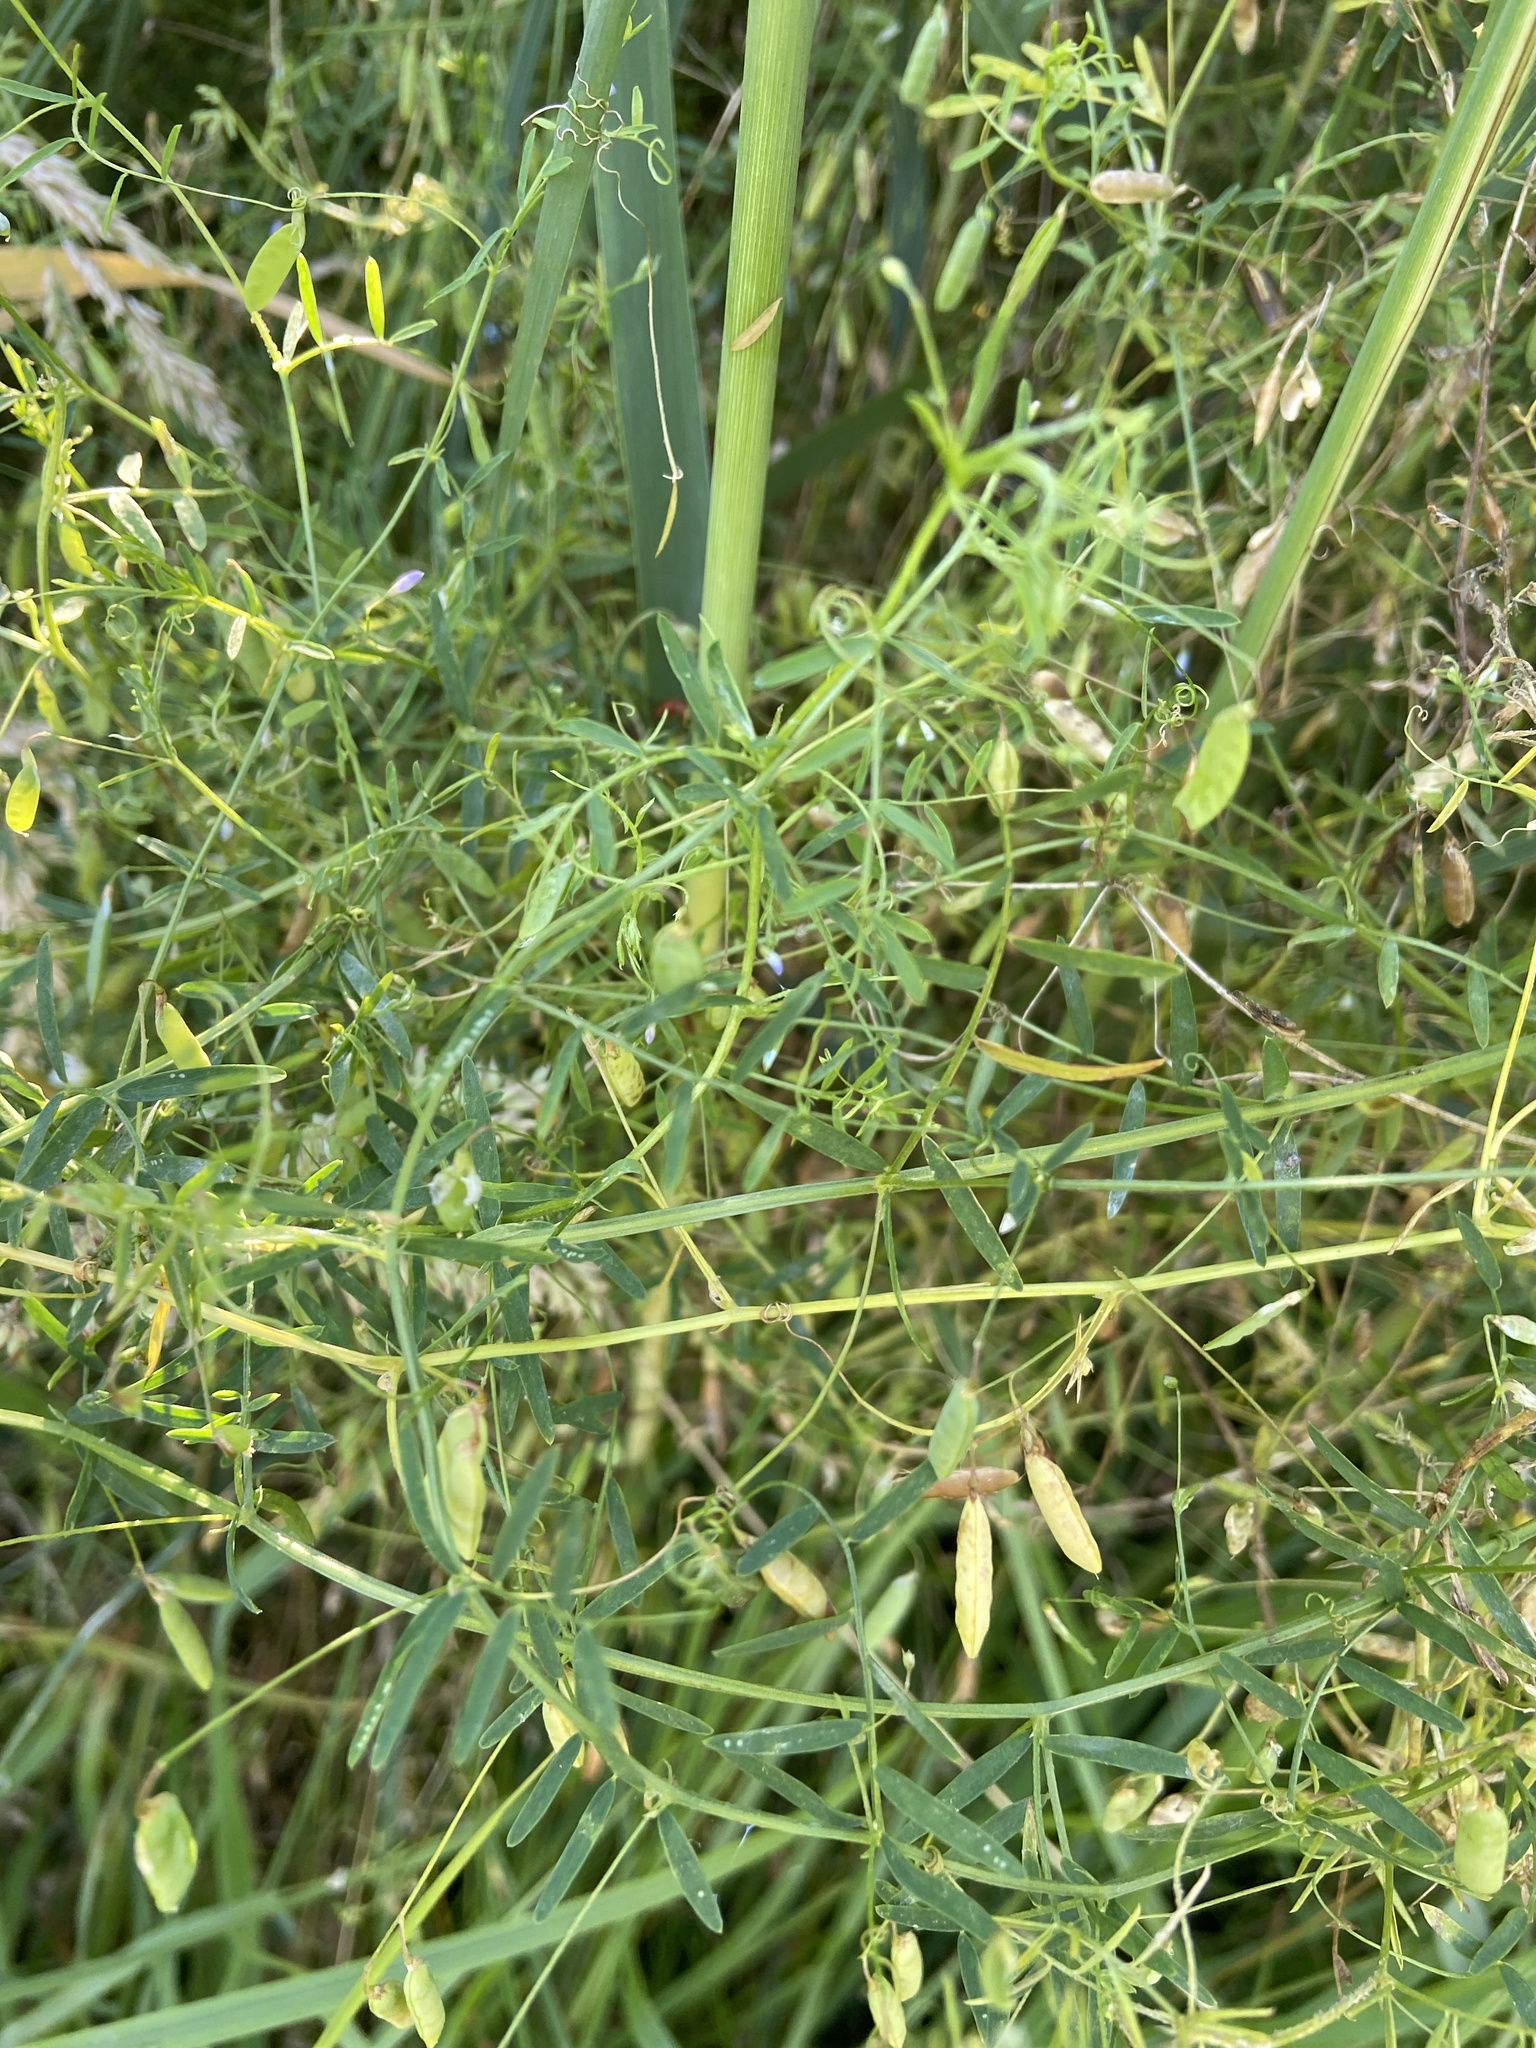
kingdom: Plantae
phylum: Tracheophyta
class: Magnoliopsida
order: Fabales
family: Fabaceae
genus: Vicia
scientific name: Vicia tetrasperma
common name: Smooth tare
